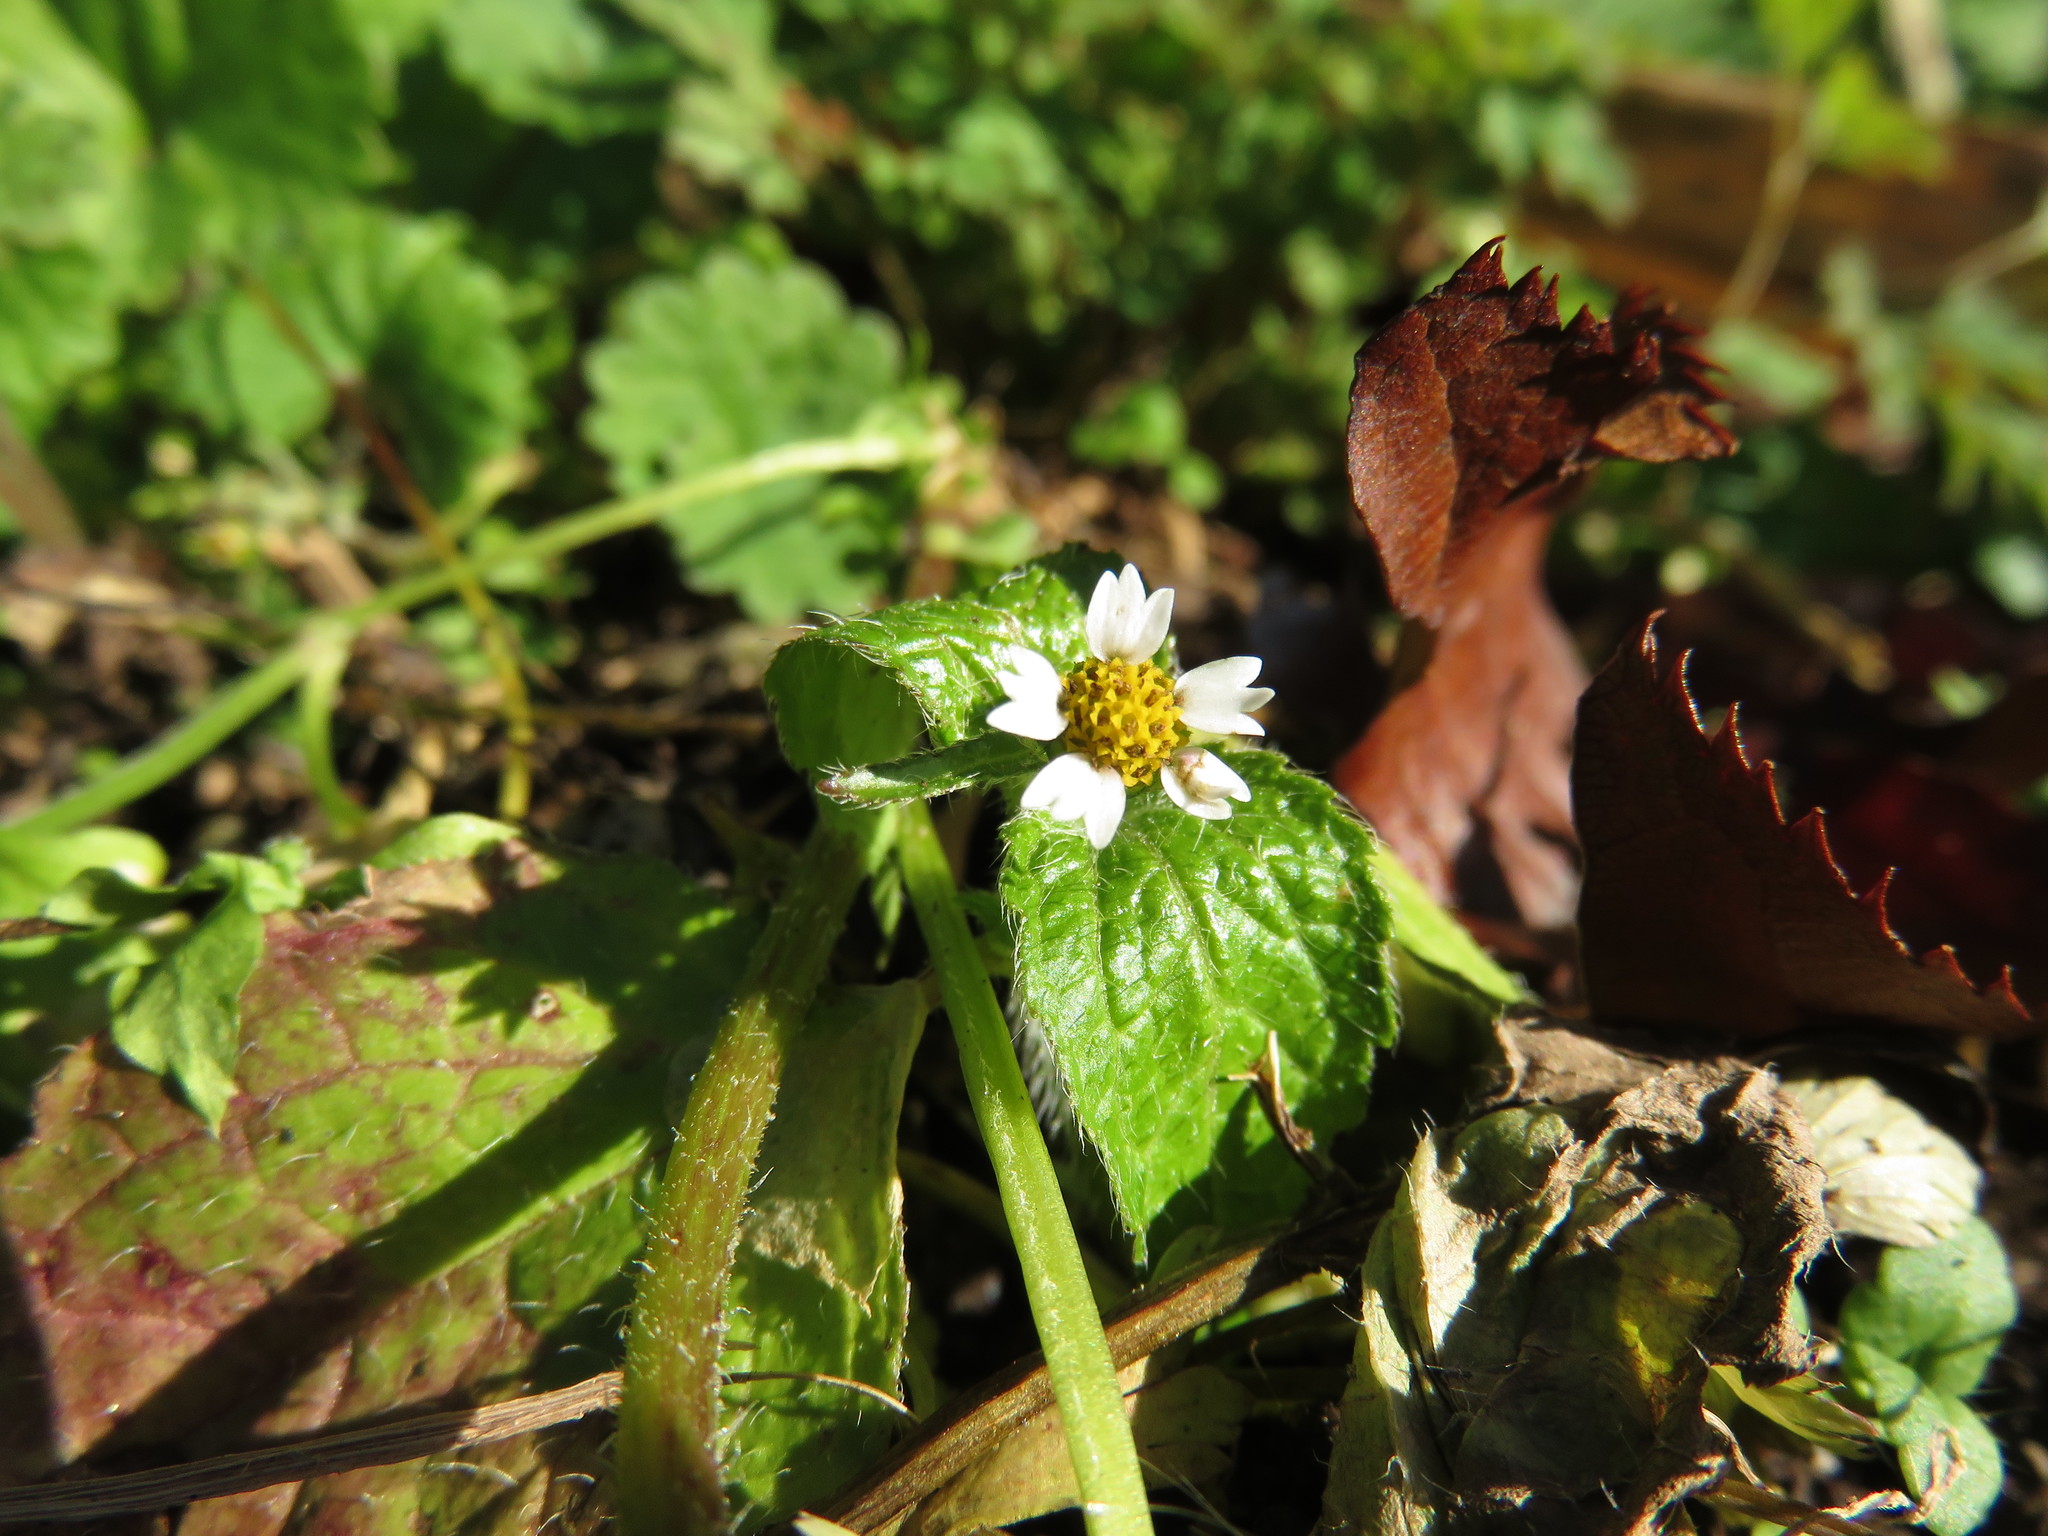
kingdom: Plantae
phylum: Tracheophyta
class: Magnoliopsida
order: Asterales
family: Asteraceae
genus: Galinsoga
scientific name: Galinsoga quadriradiata
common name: Shaggy soldier
